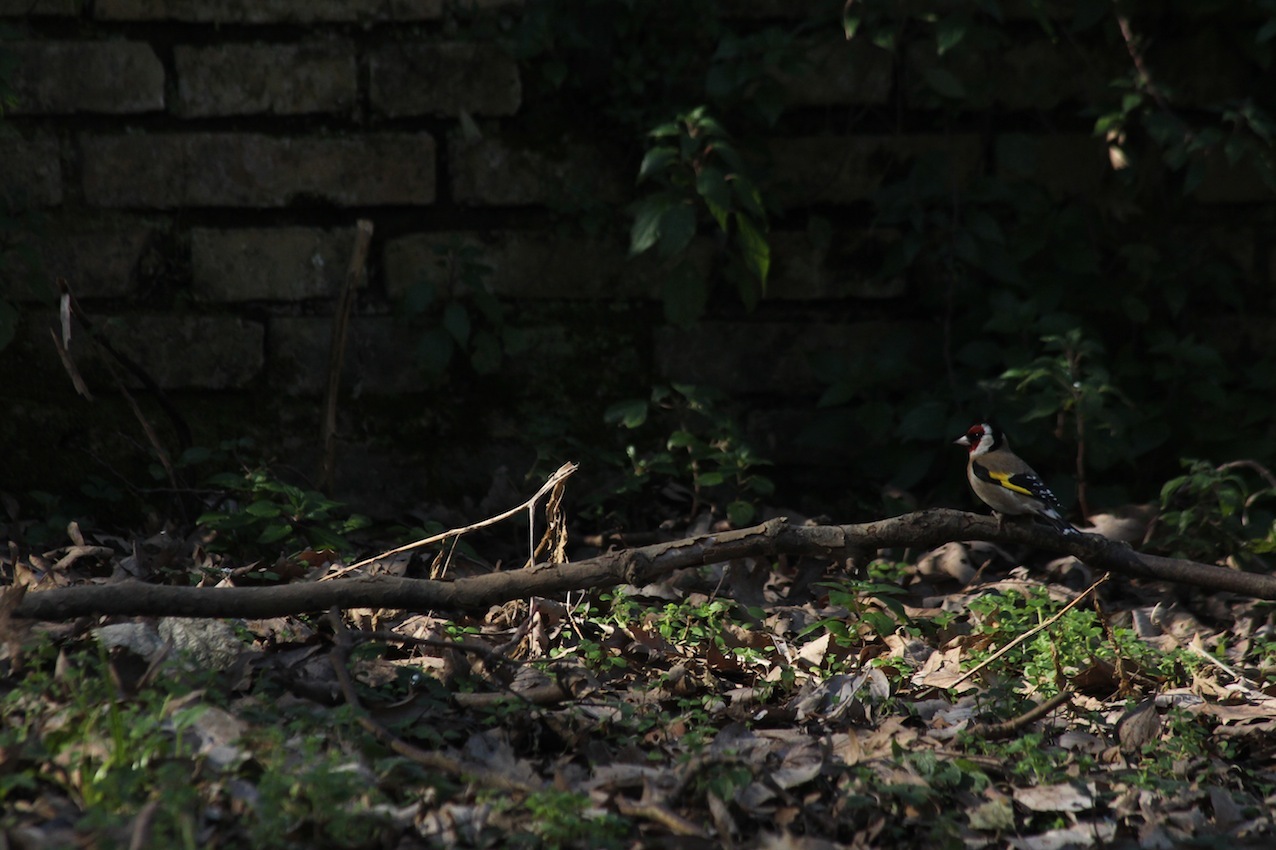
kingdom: Animalia
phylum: Chordata
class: Aves
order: Passeriformes
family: Fringillidae
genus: Carduelis
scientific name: Carduelis carduelis
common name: European goldfinch
